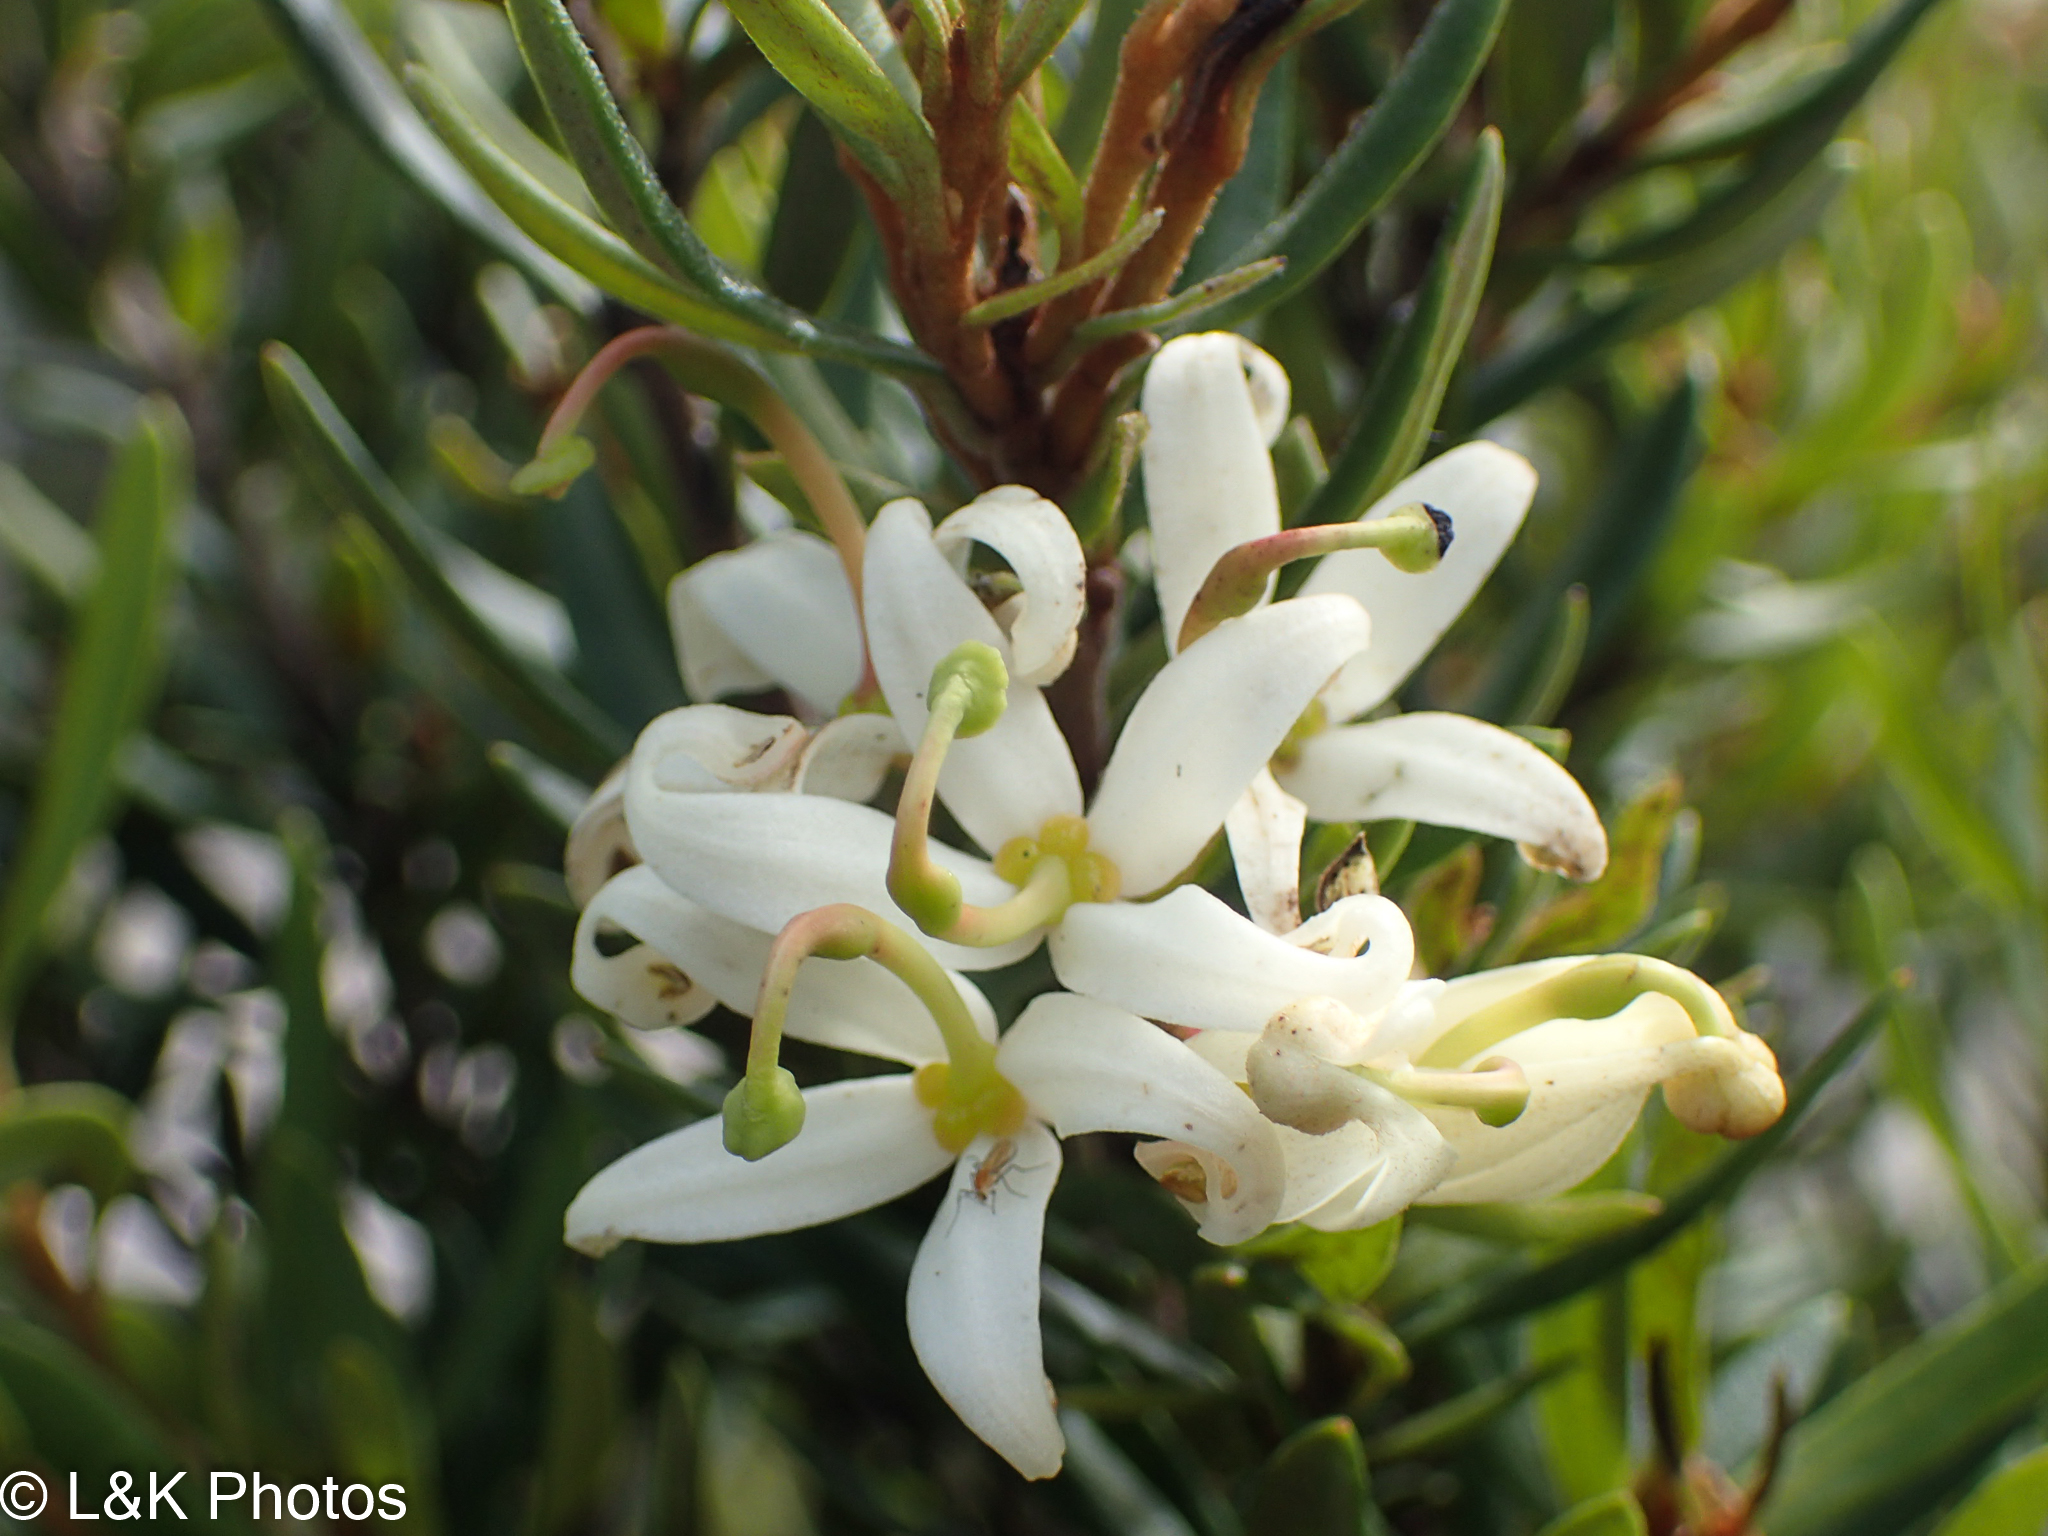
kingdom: Plantae
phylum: Tracheophyta
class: Magnoliopsida
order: Proteales
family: Proteaceae
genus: Lomatia
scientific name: Lomatia polymorpha
